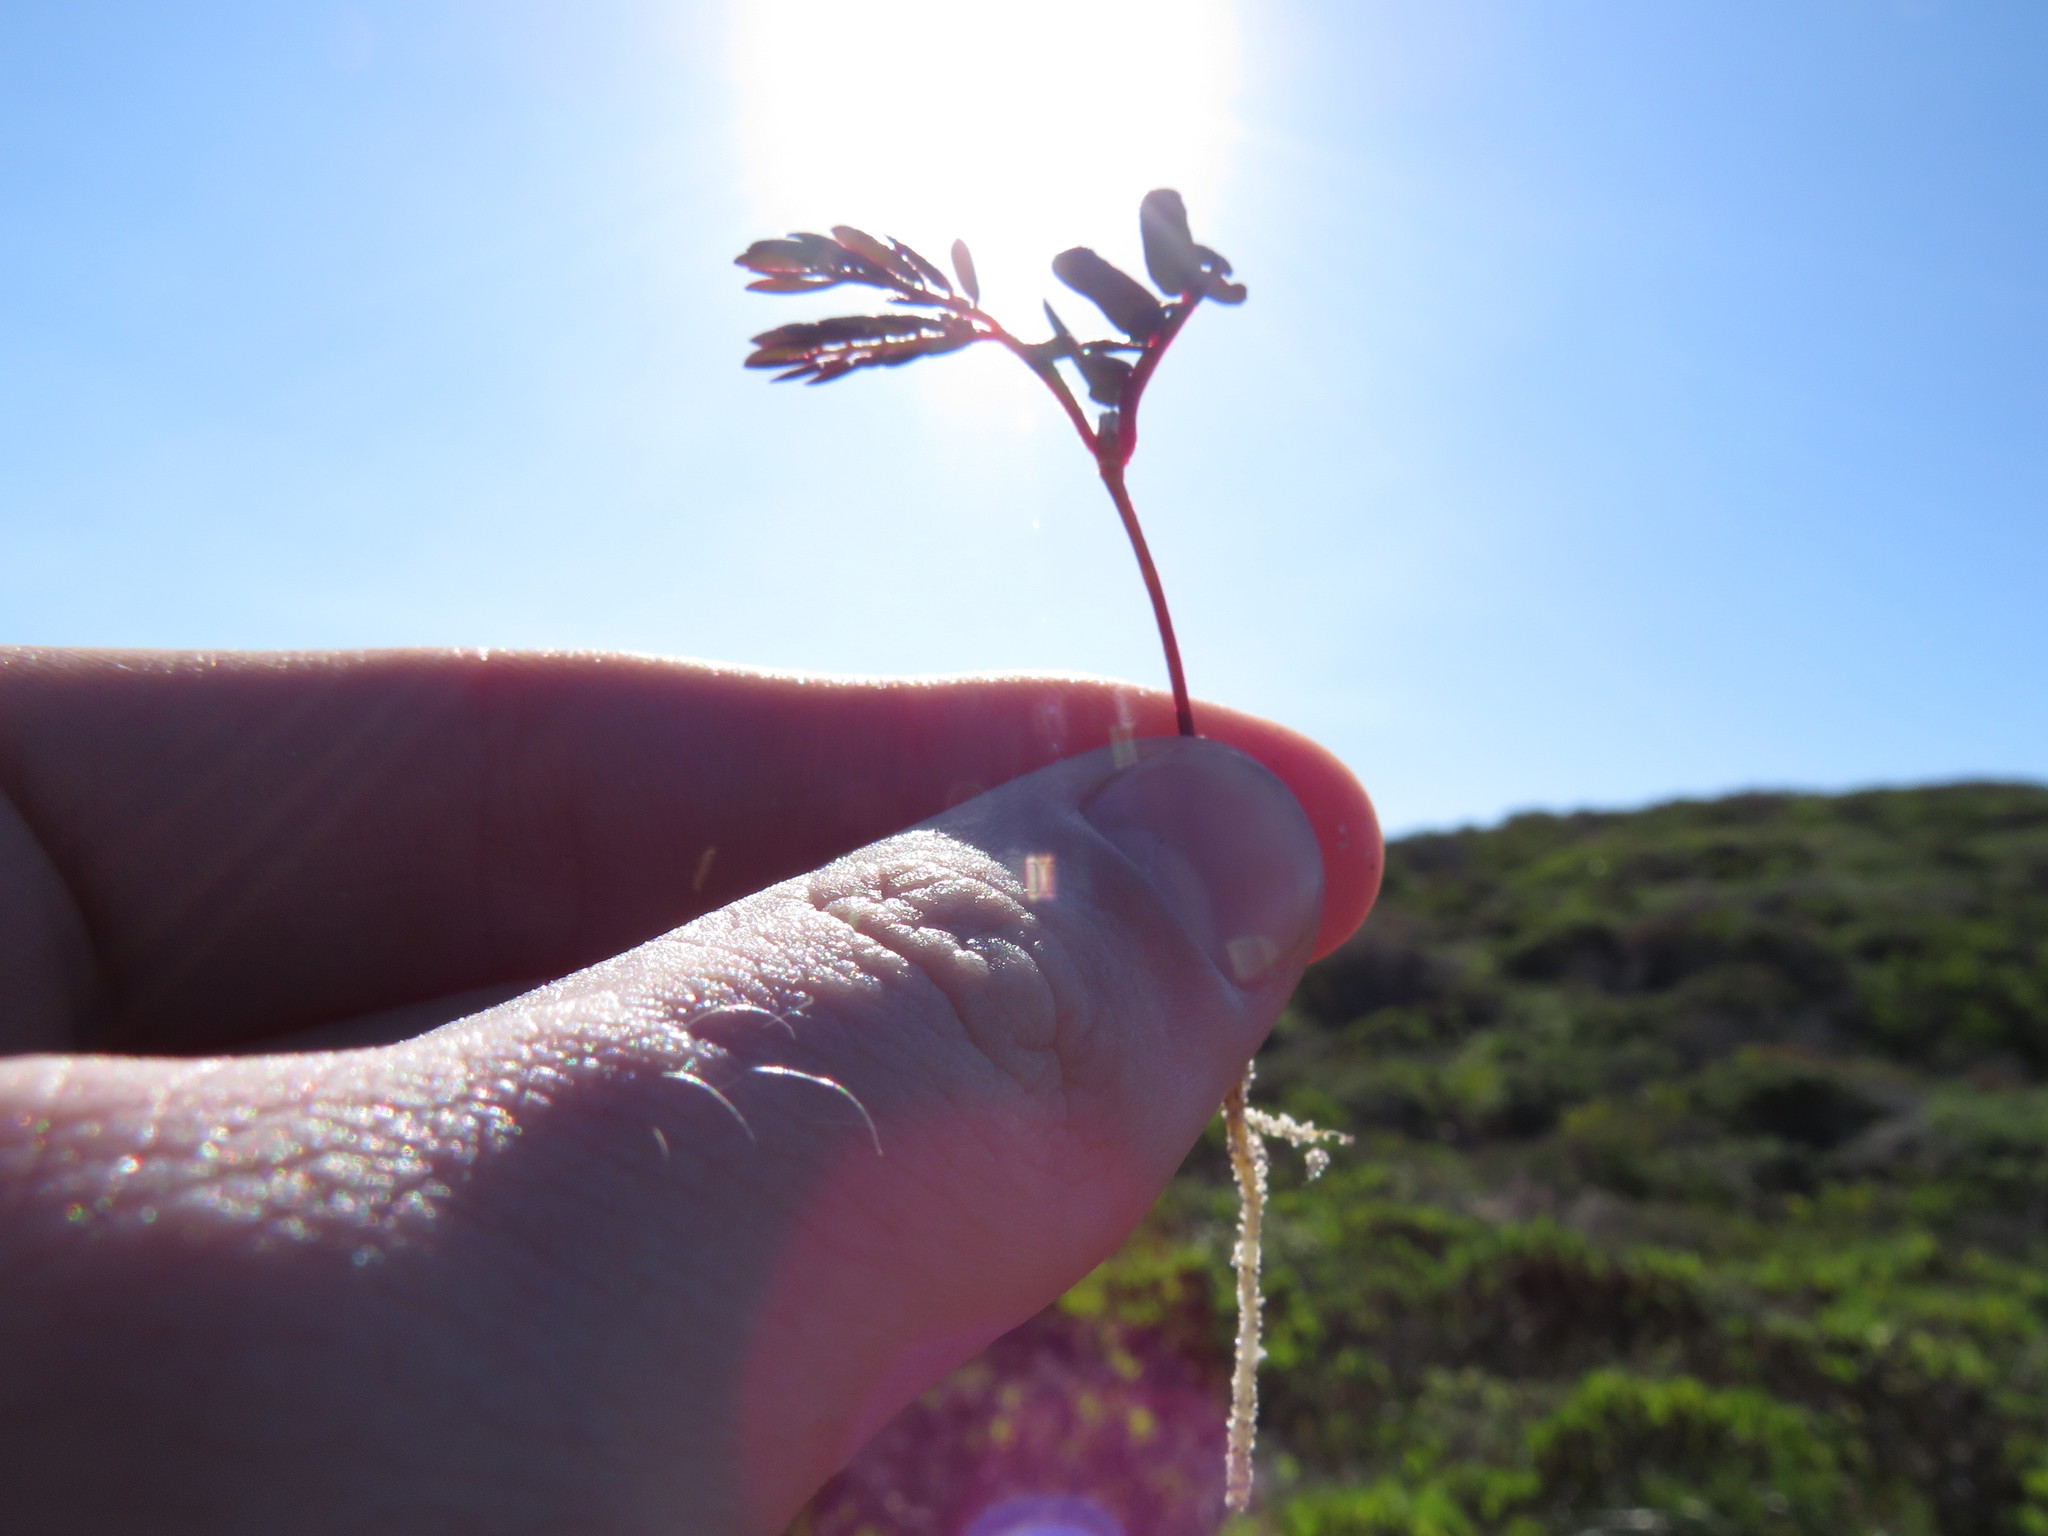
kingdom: Plantae
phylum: Tracheophyta
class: Magnoliopsida
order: Fabales
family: Fabaceae
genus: Acacia
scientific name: Acacia cyclops
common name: Coastal wattle
